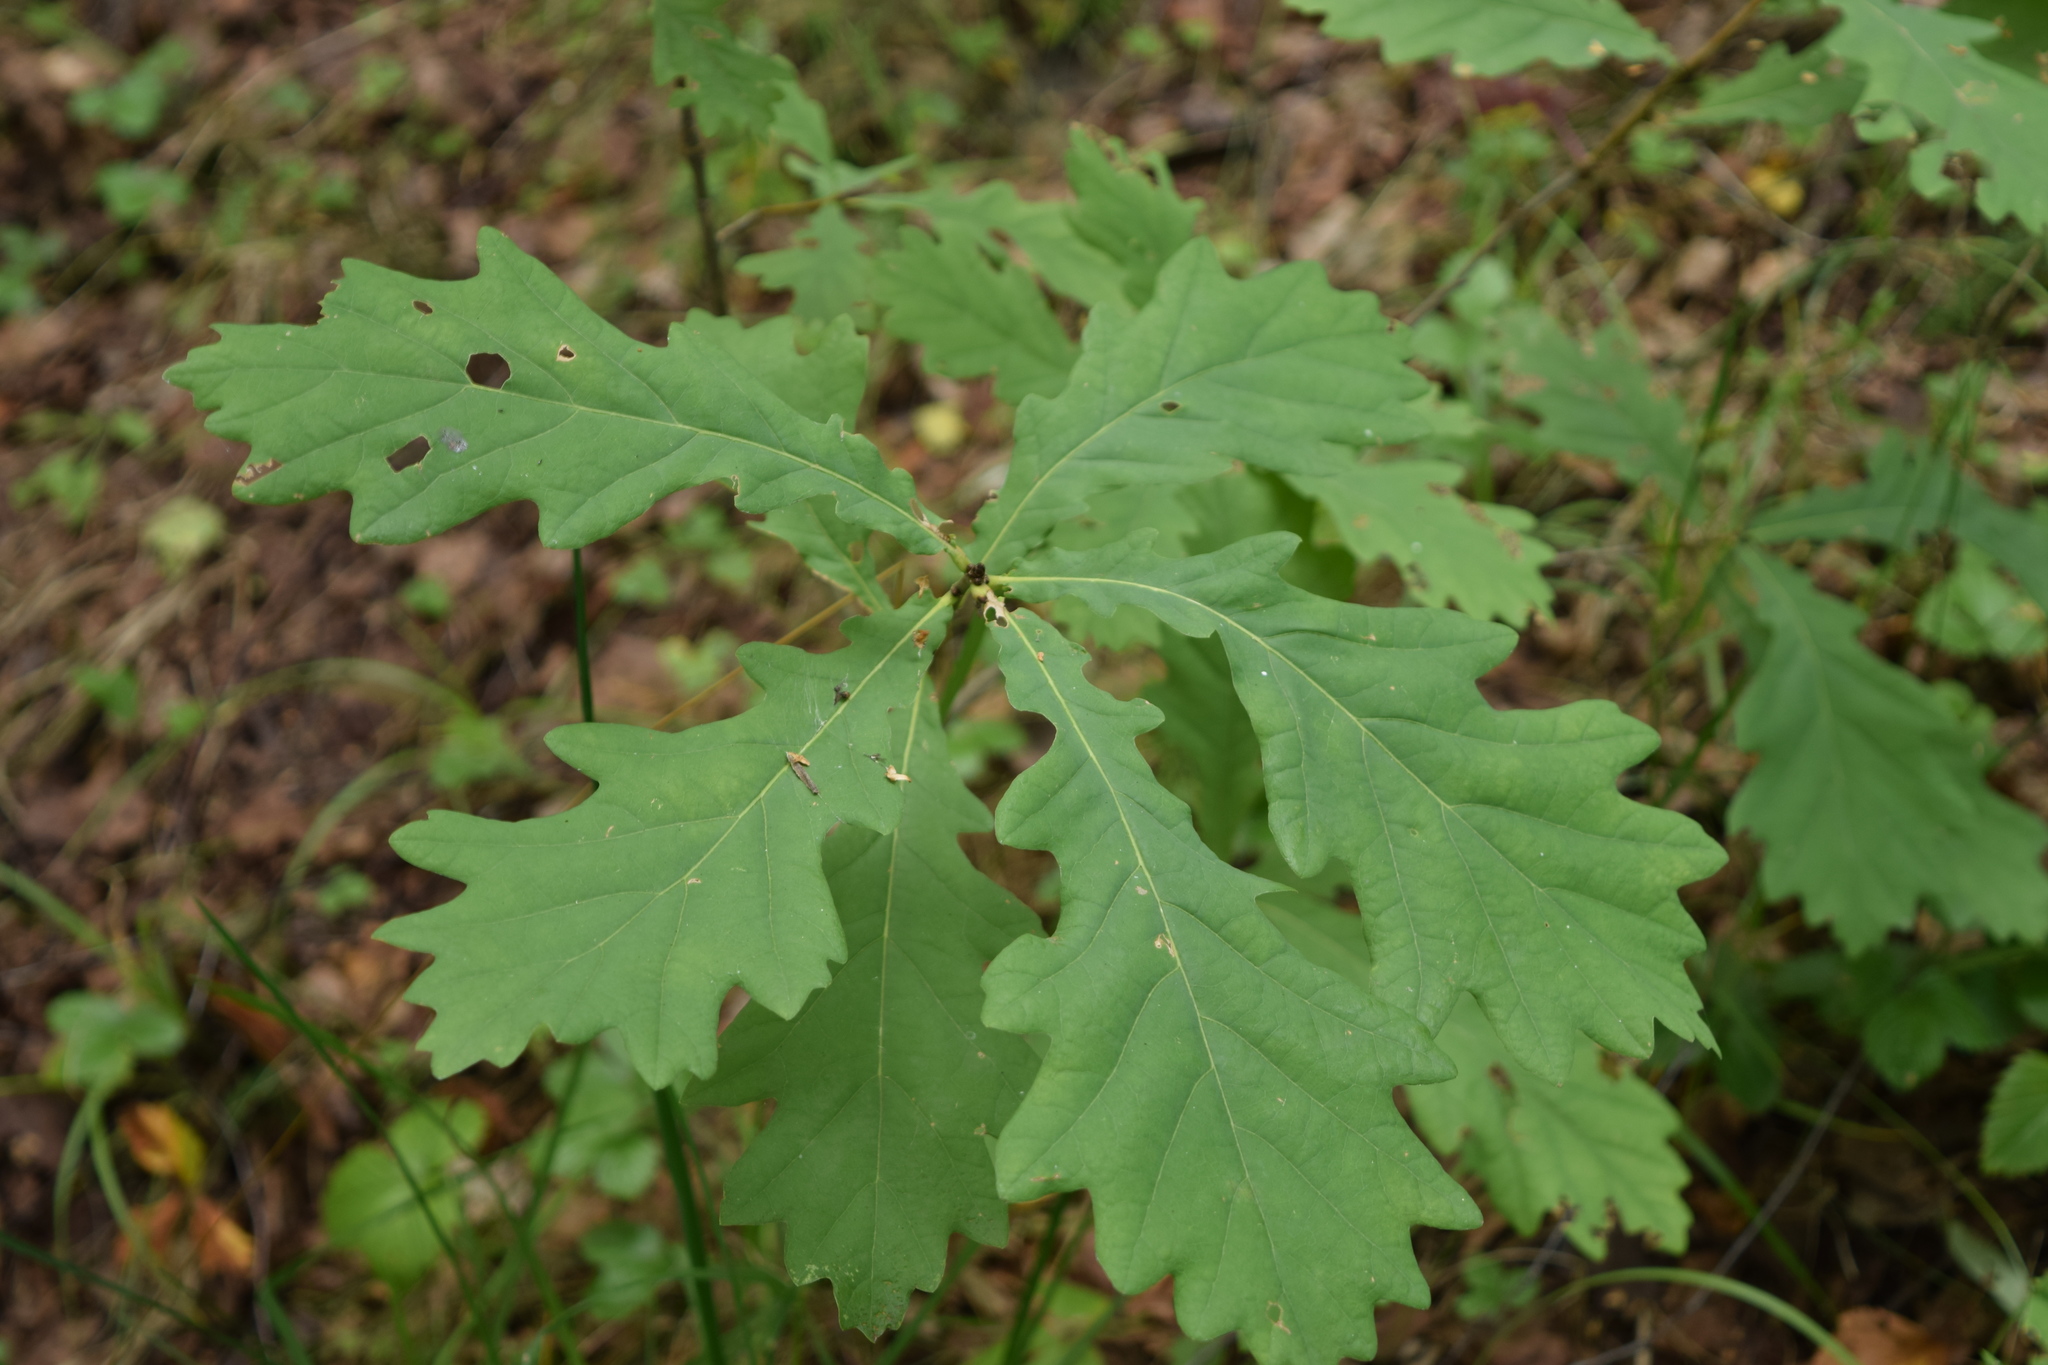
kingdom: Plantae
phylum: Tracheophyta
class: Magnoliopsida
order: Fagales
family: Fagaceae
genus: Quercus
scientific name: Quercus robur
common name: Pedunculate oak
